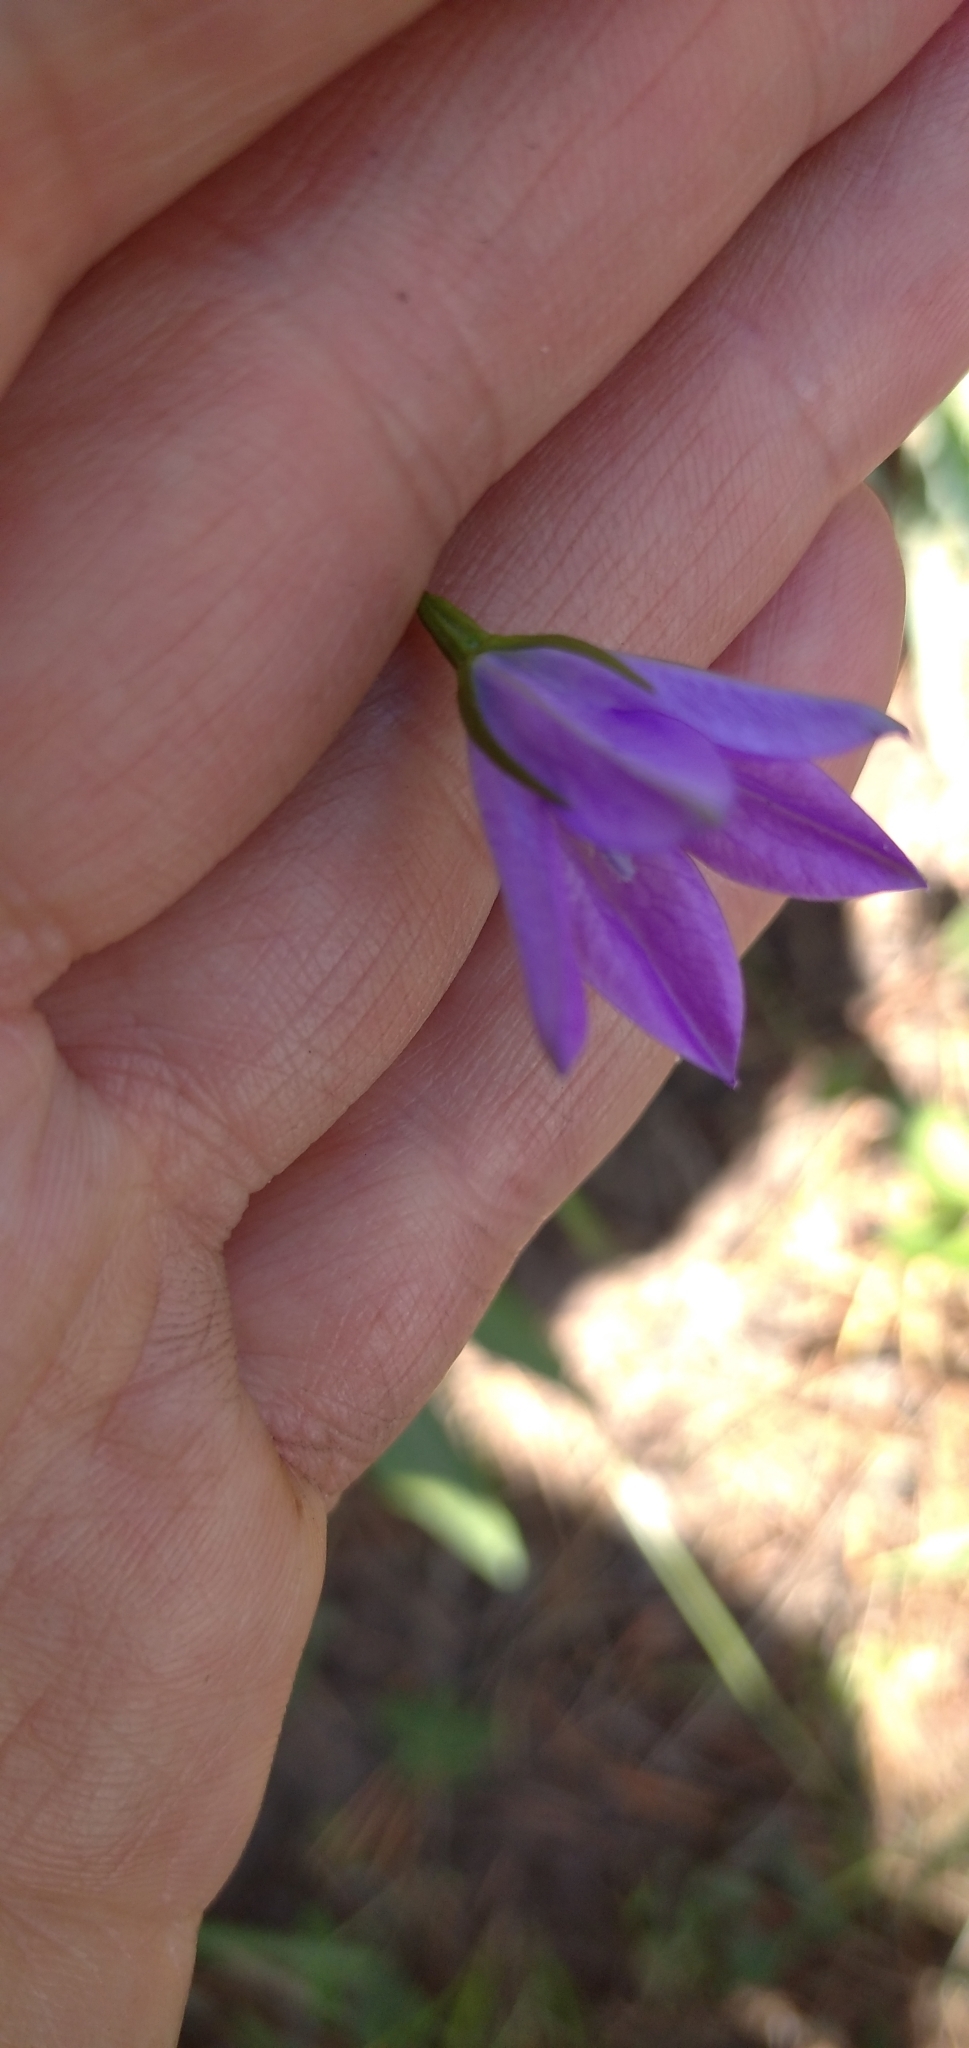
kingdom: Plantae
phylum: Tracheophyta
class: Magnoliopsida
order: Asterales
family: Campanulaceae
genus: Campanula
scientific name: Campanula stevenii
